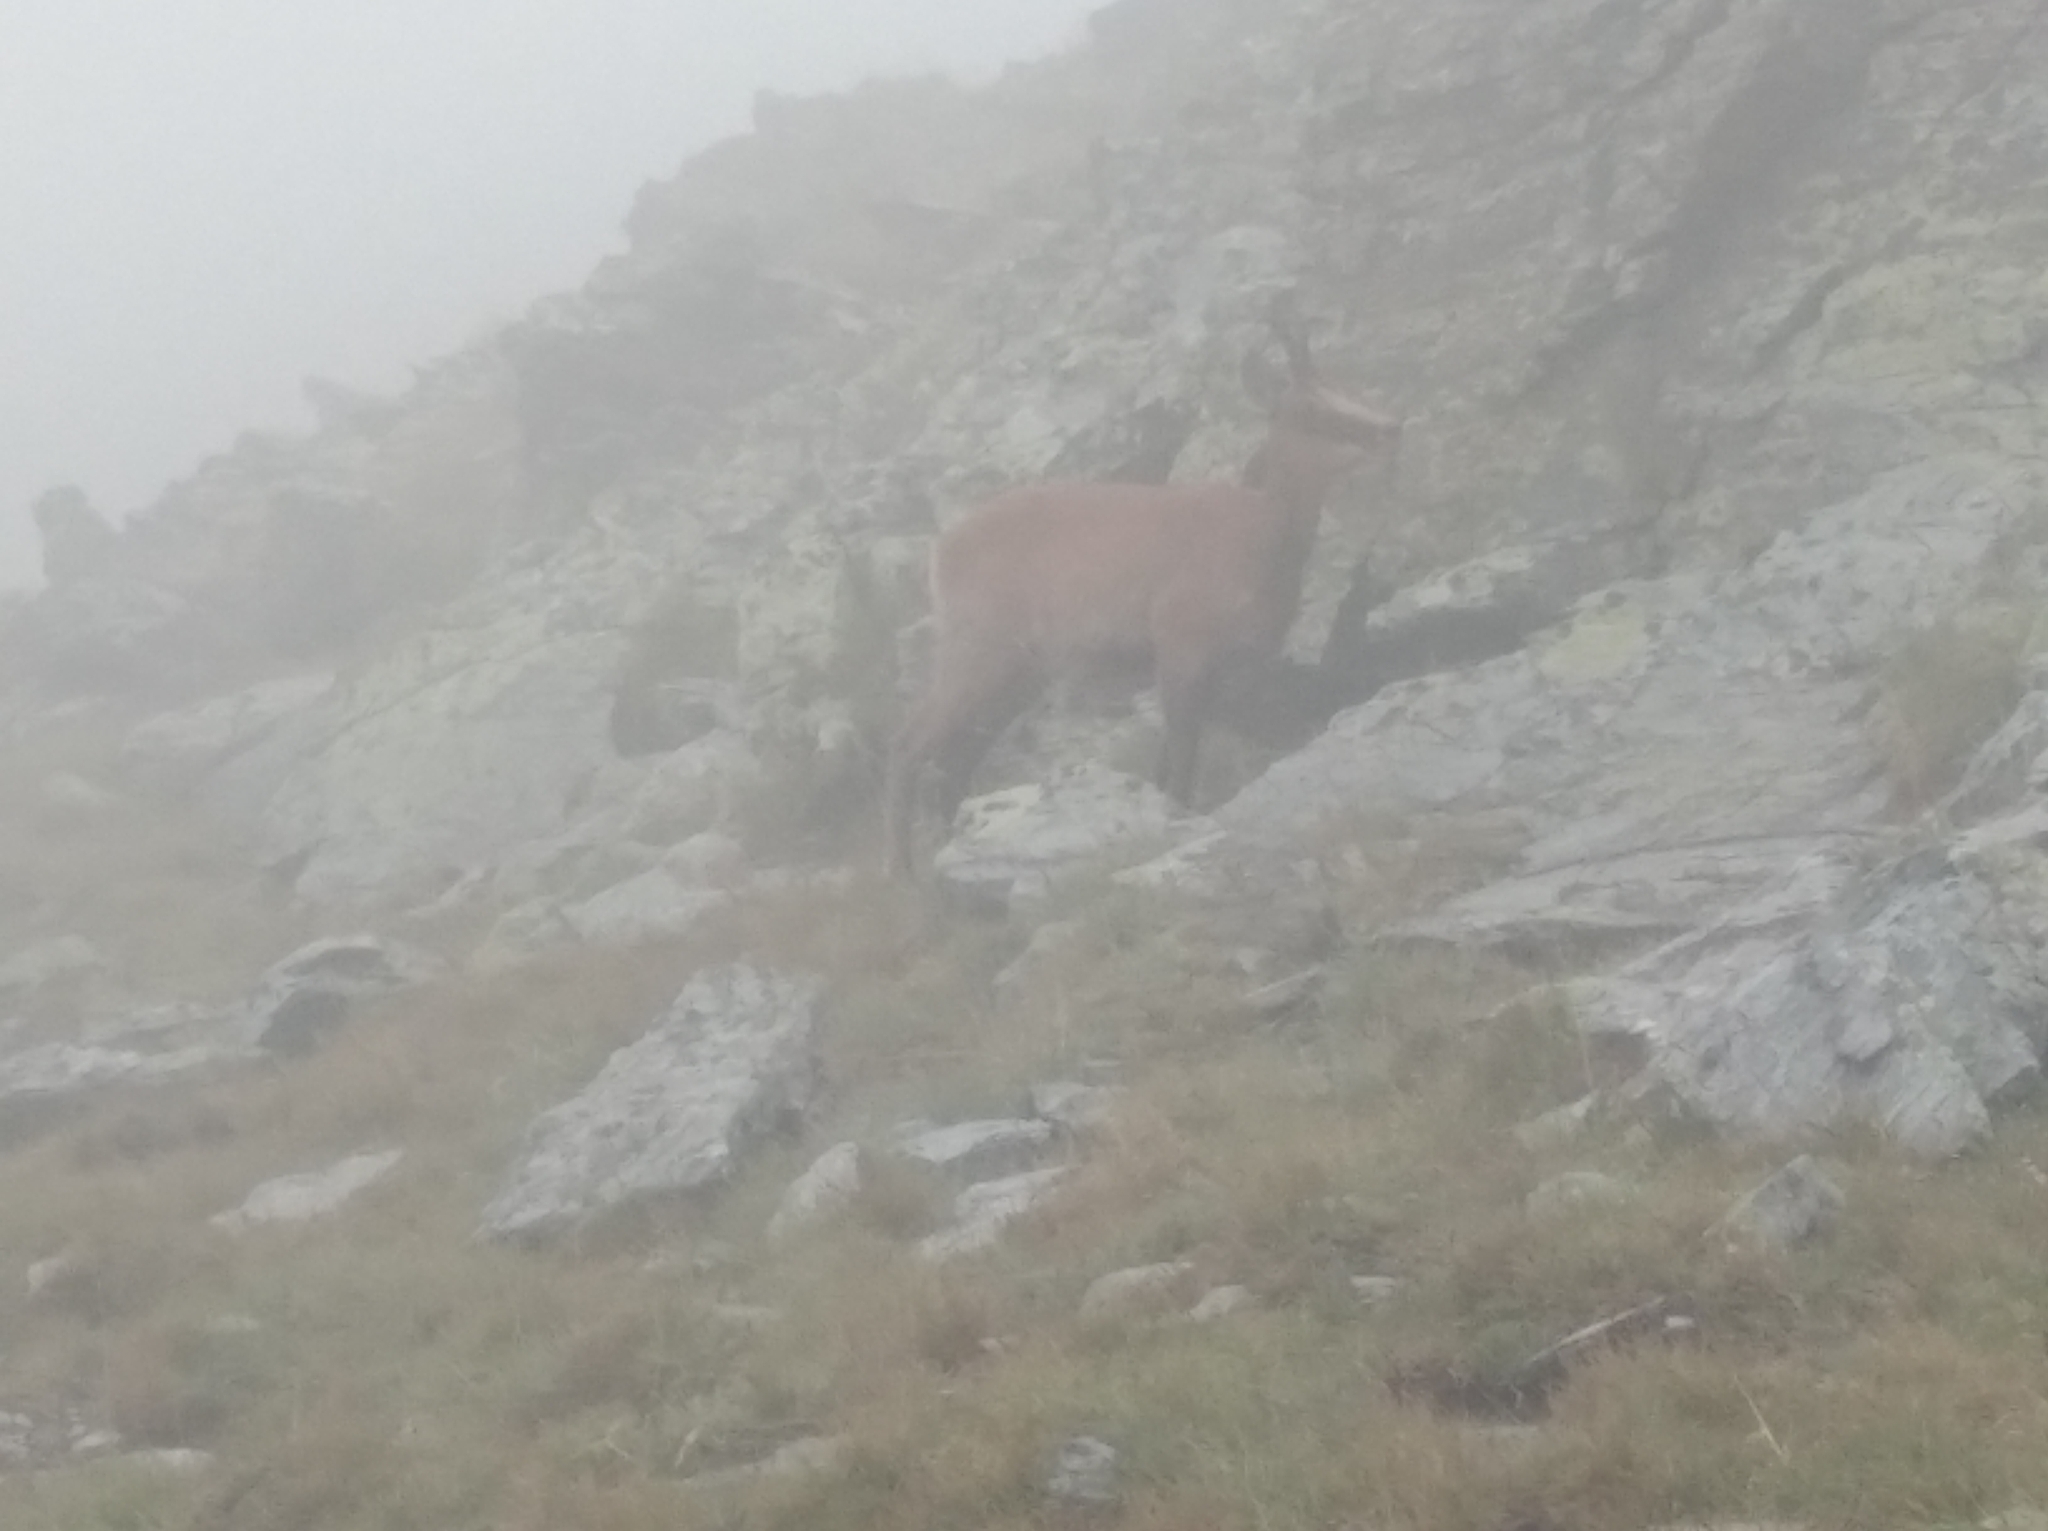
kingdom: Animalia
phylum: Chordata
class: Mammalia
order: Artiodactyla
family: Bovidae
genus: Rupicapra
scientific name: Rupicapra pyrenaica
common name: Pyrenean chamois
